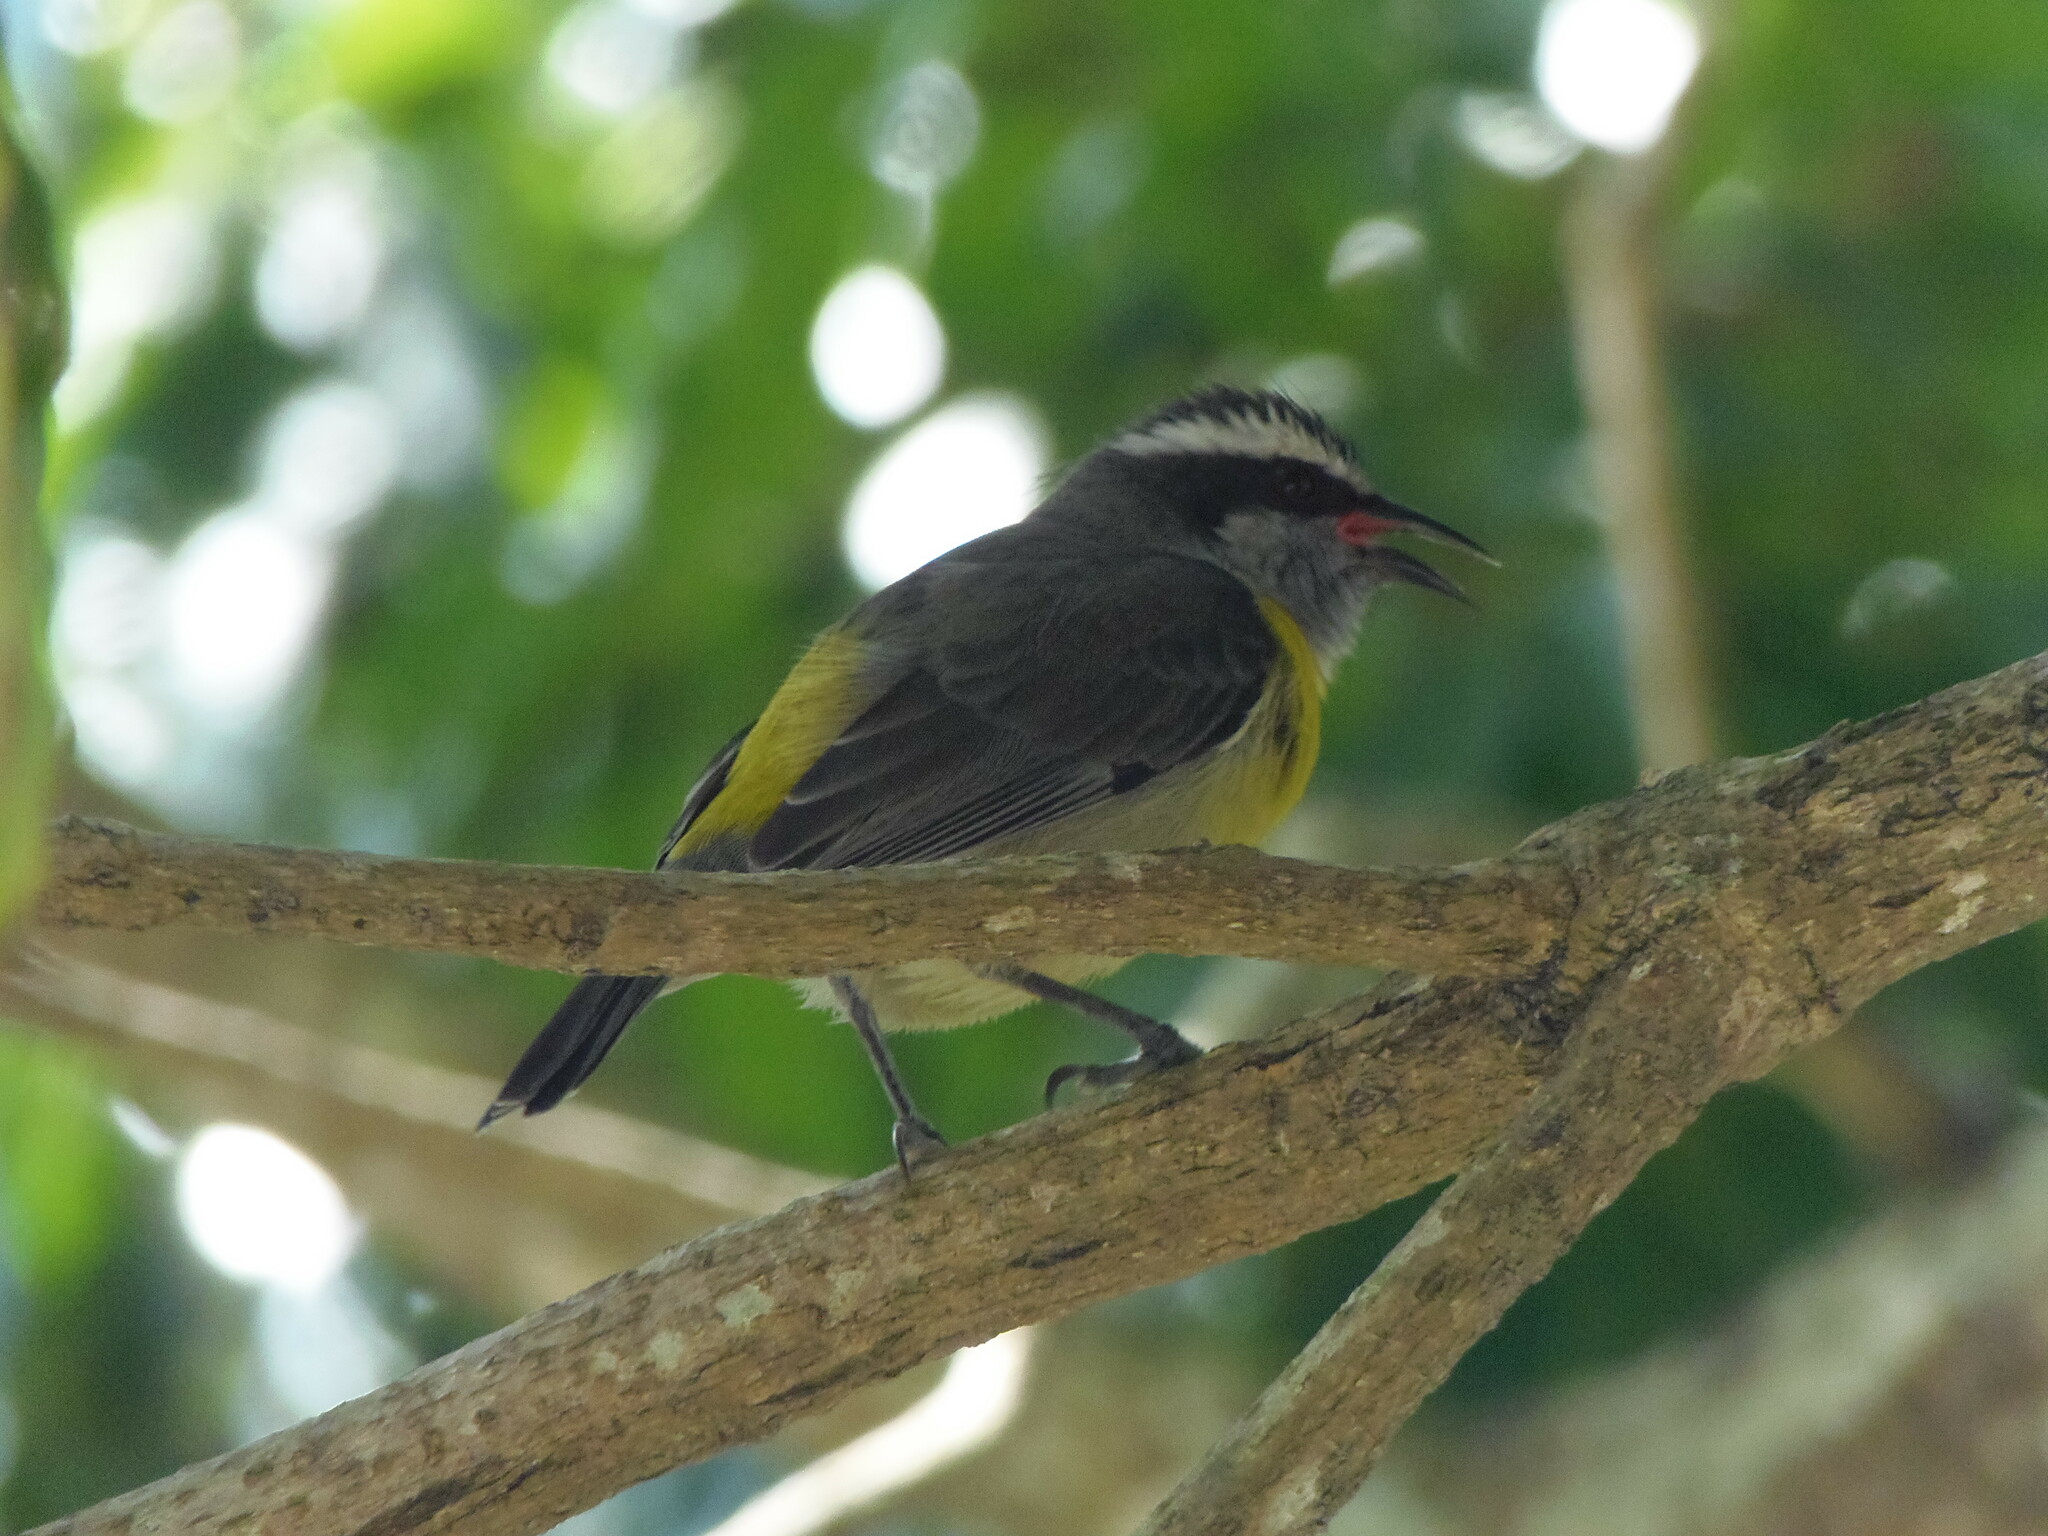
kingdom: Animalia
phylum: Chordata
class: Aves
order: Passeriformes
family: Thraupidae
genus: Coereba
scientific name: Coereba flaveola
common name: Bananaquit
